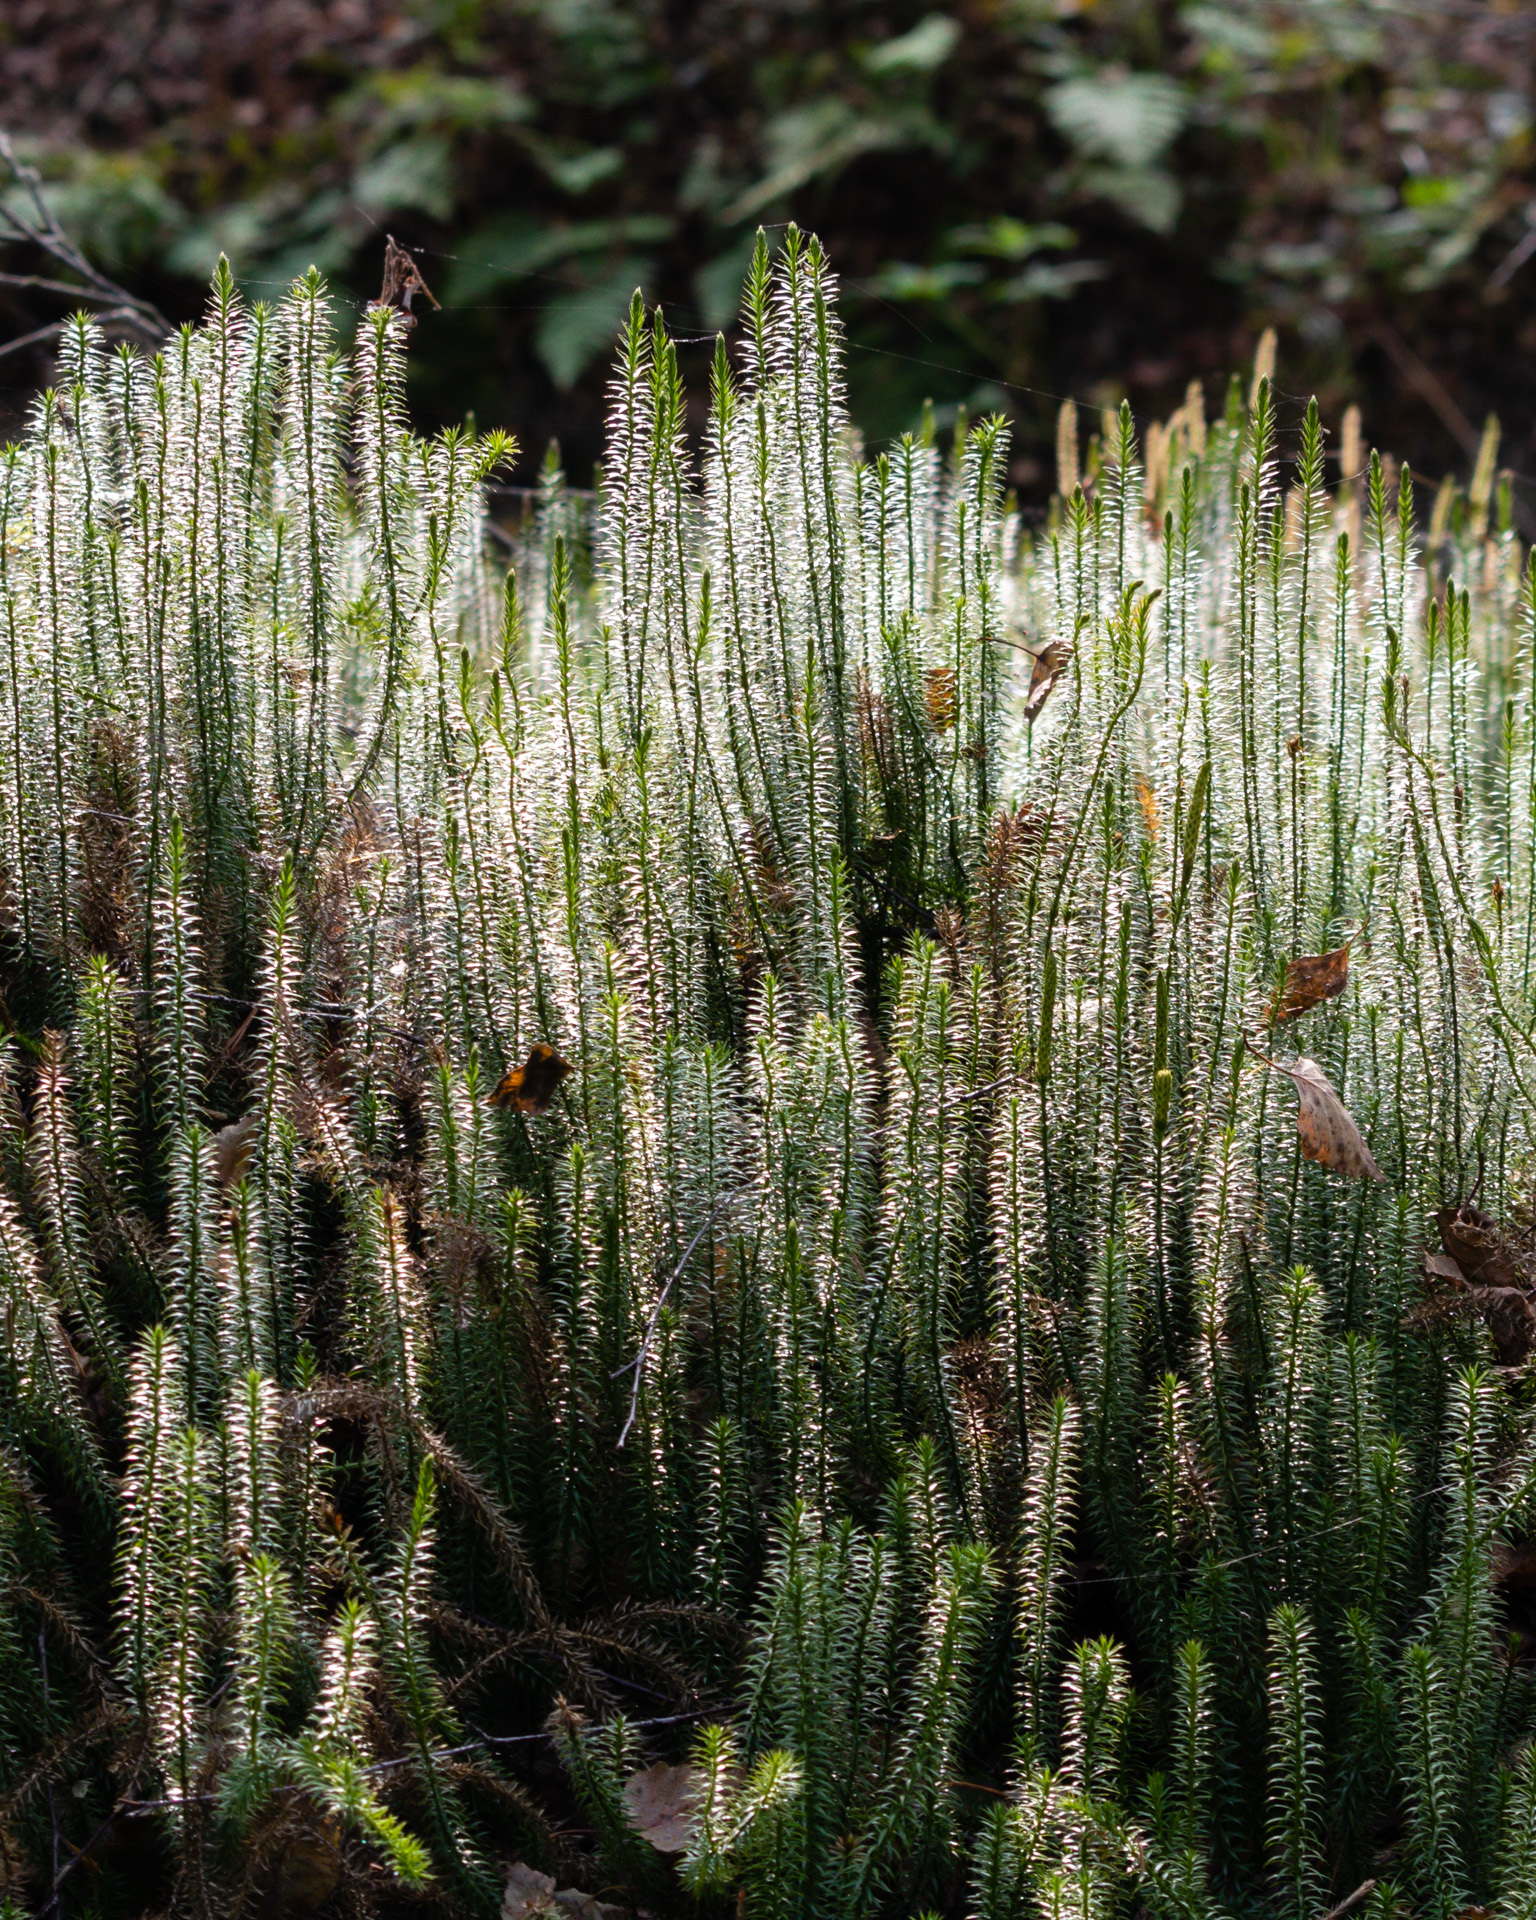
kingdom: Plantae
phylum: Tracheophyta
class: Lycopodiopsida
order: Lycopodiales
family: Lycopodiaceae
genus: Spinulum
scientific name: Spinulum annotinum
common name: Interrupted club-moss
